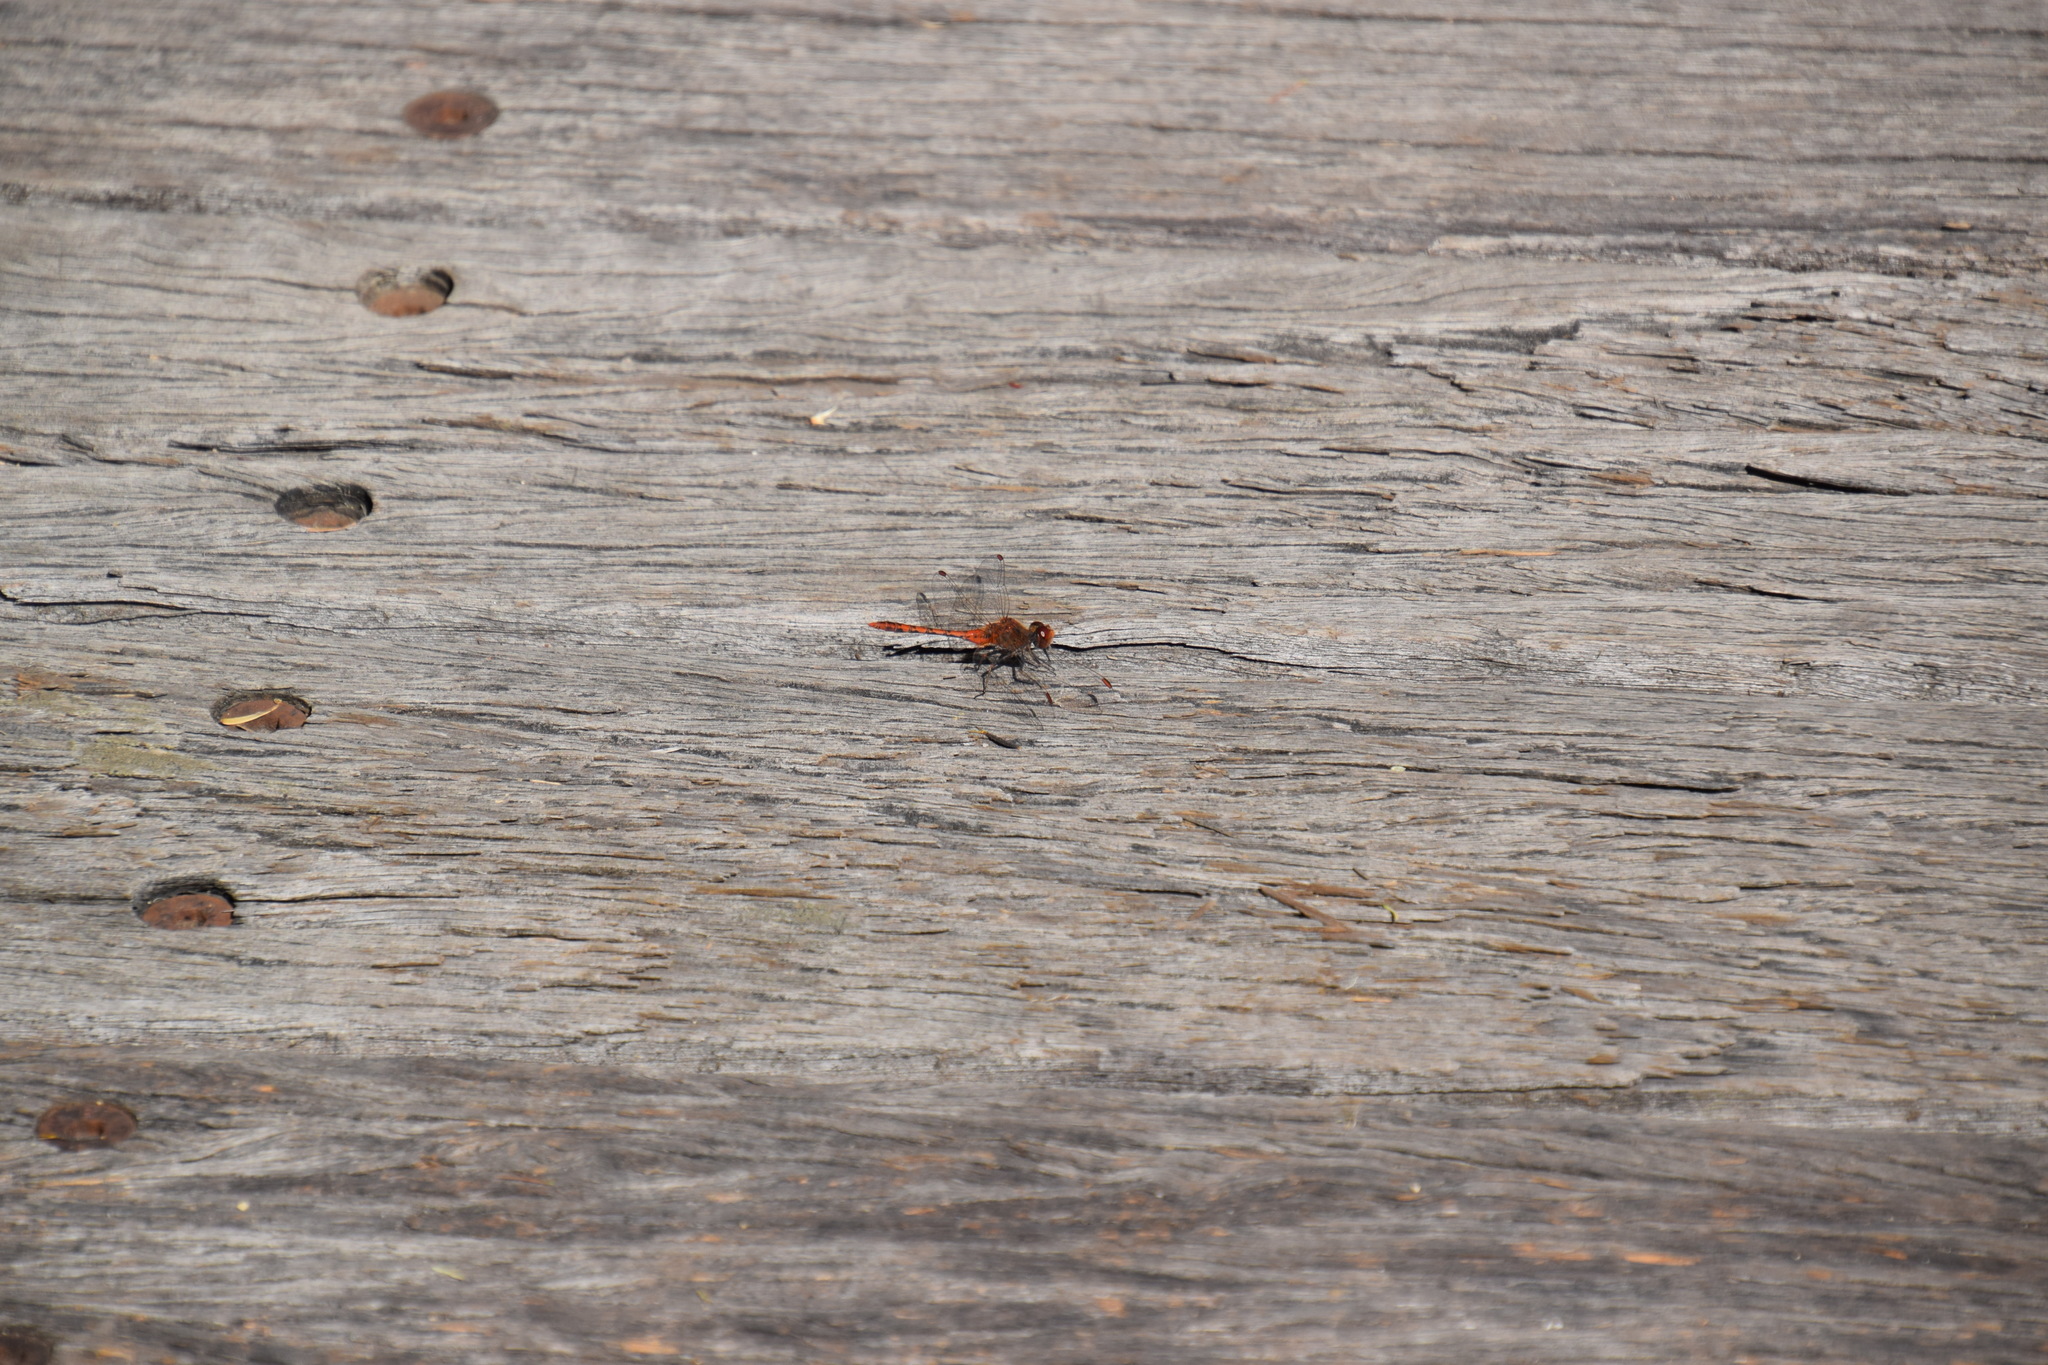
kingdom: Animalia
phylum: Arthropoda
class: Insecta
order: Odonata
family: Libellulidae
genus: Diplacodes
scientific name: Diplacodes bipunctata
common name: Red percher dragonfly
